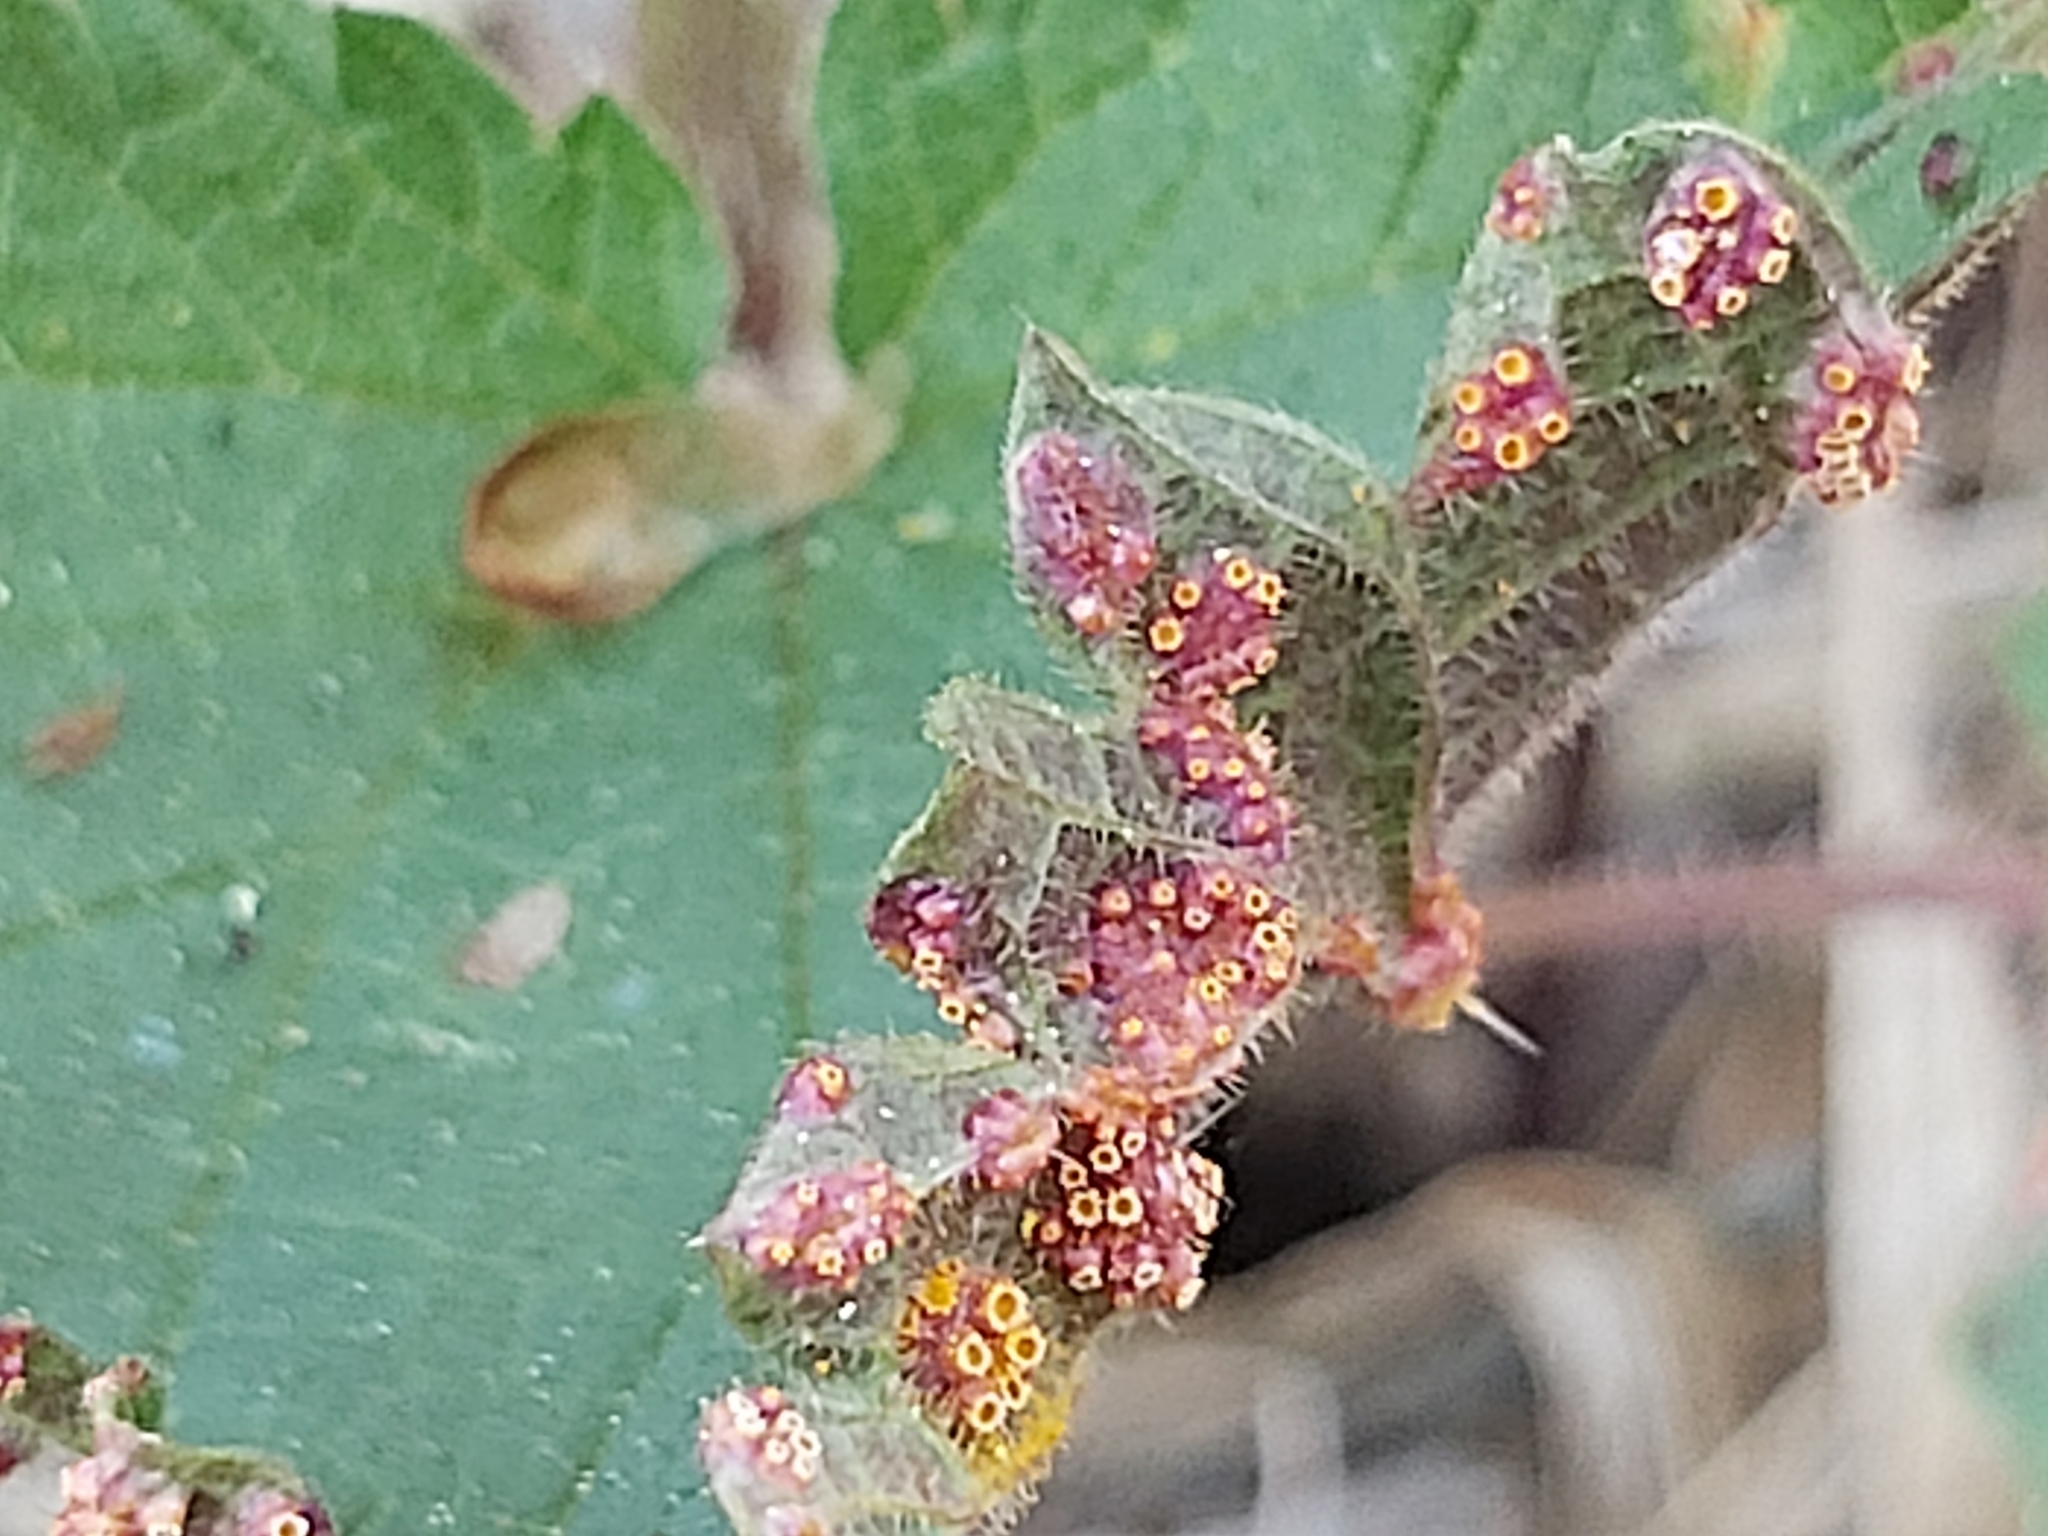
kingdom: Fungi
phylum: Basidiomycota
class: Pucciniomycetes
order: Pucciniales
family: Pucciniaceae
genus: Puccinia
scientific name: Puccinia urticata
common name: Nettle clustercup rust fungus
